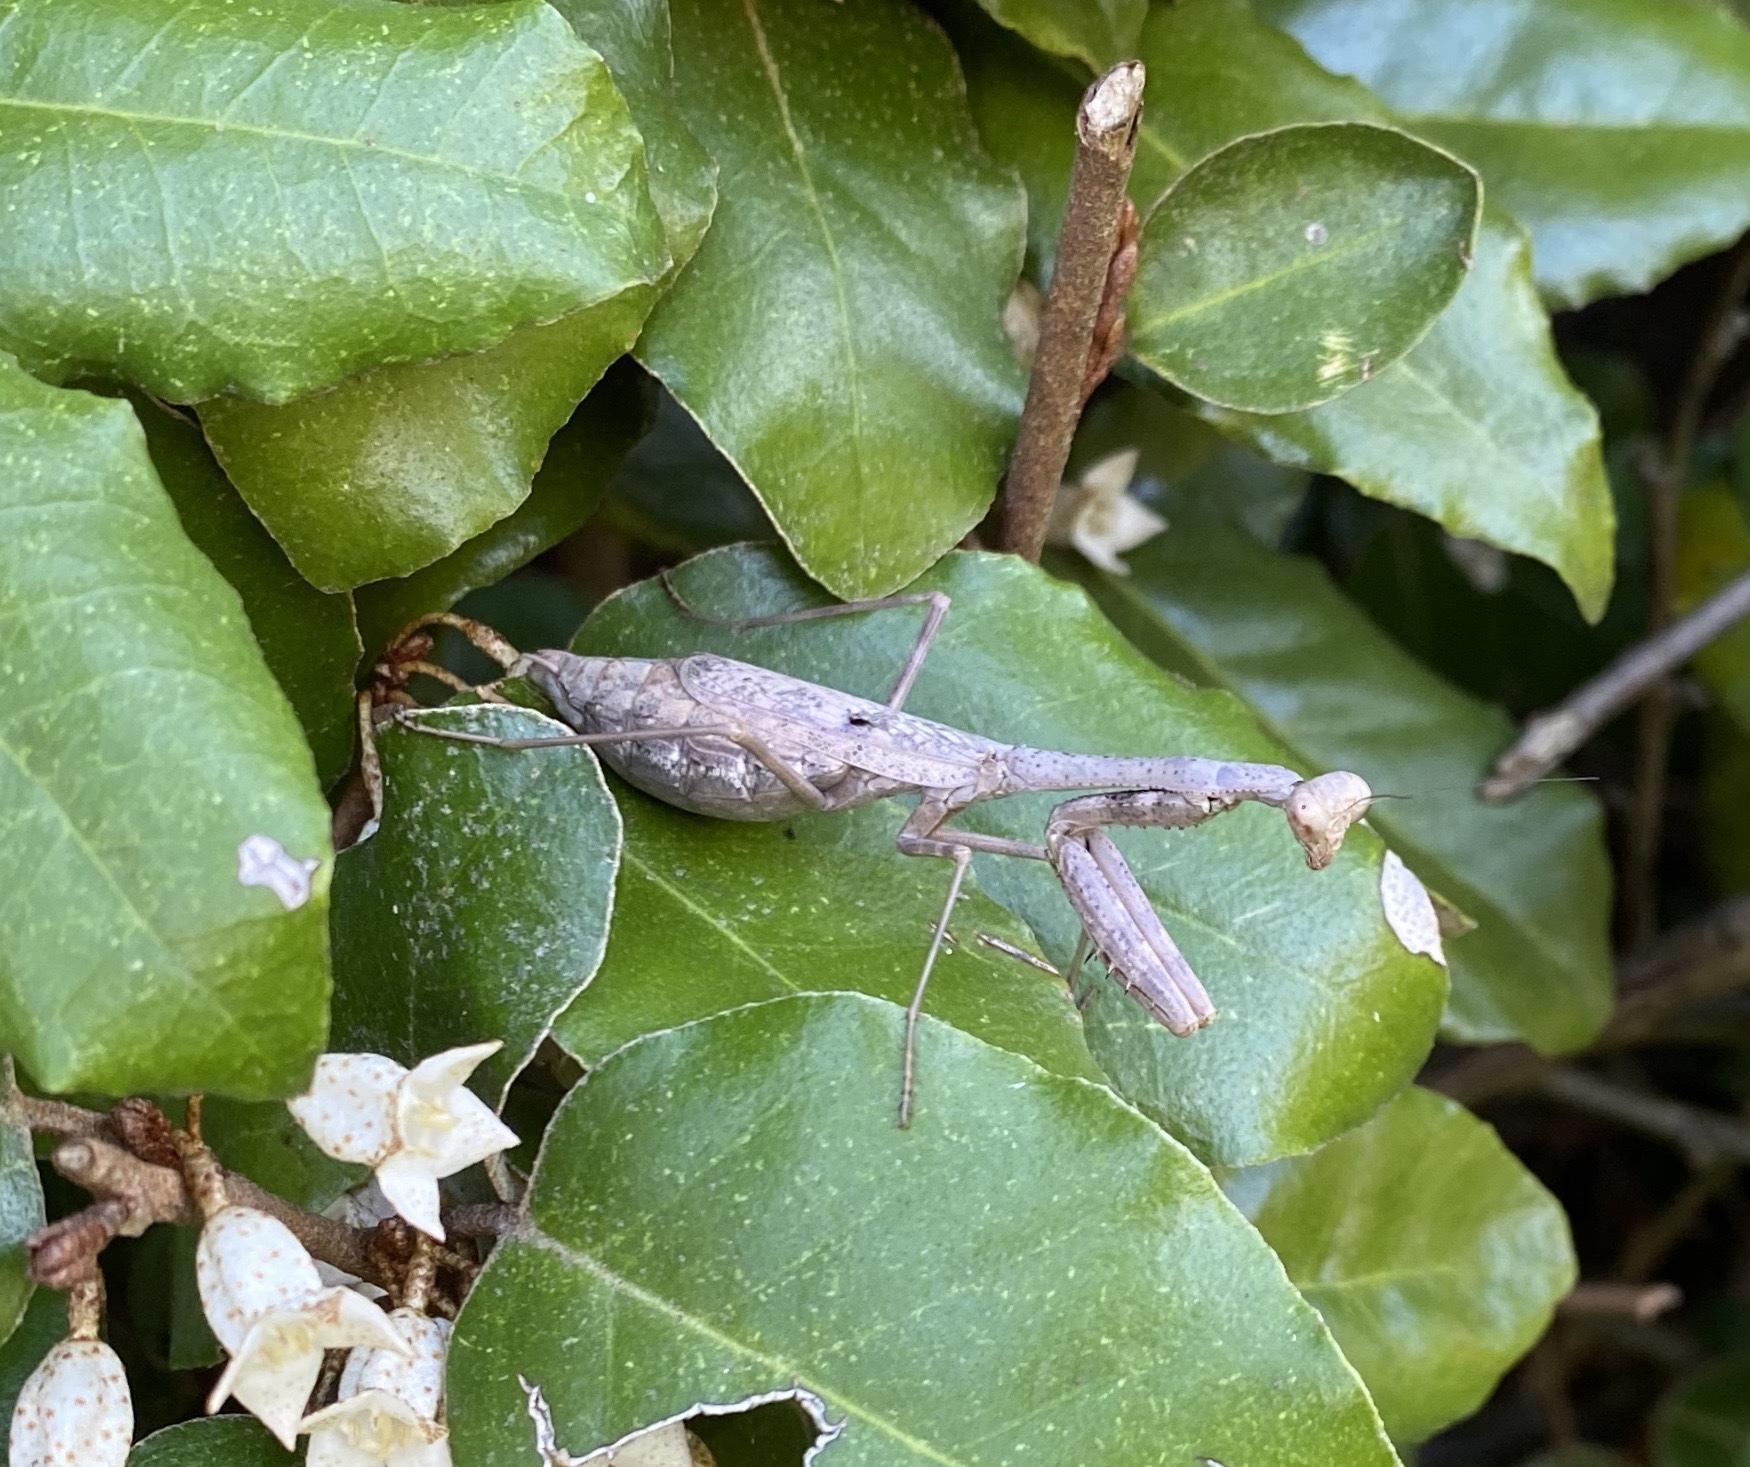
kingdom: Animalia
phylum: Arthropoda
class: Insecta
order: Mantodea
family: Mantidae
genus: Stagmomantis
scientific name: Stagmomantis carolina
